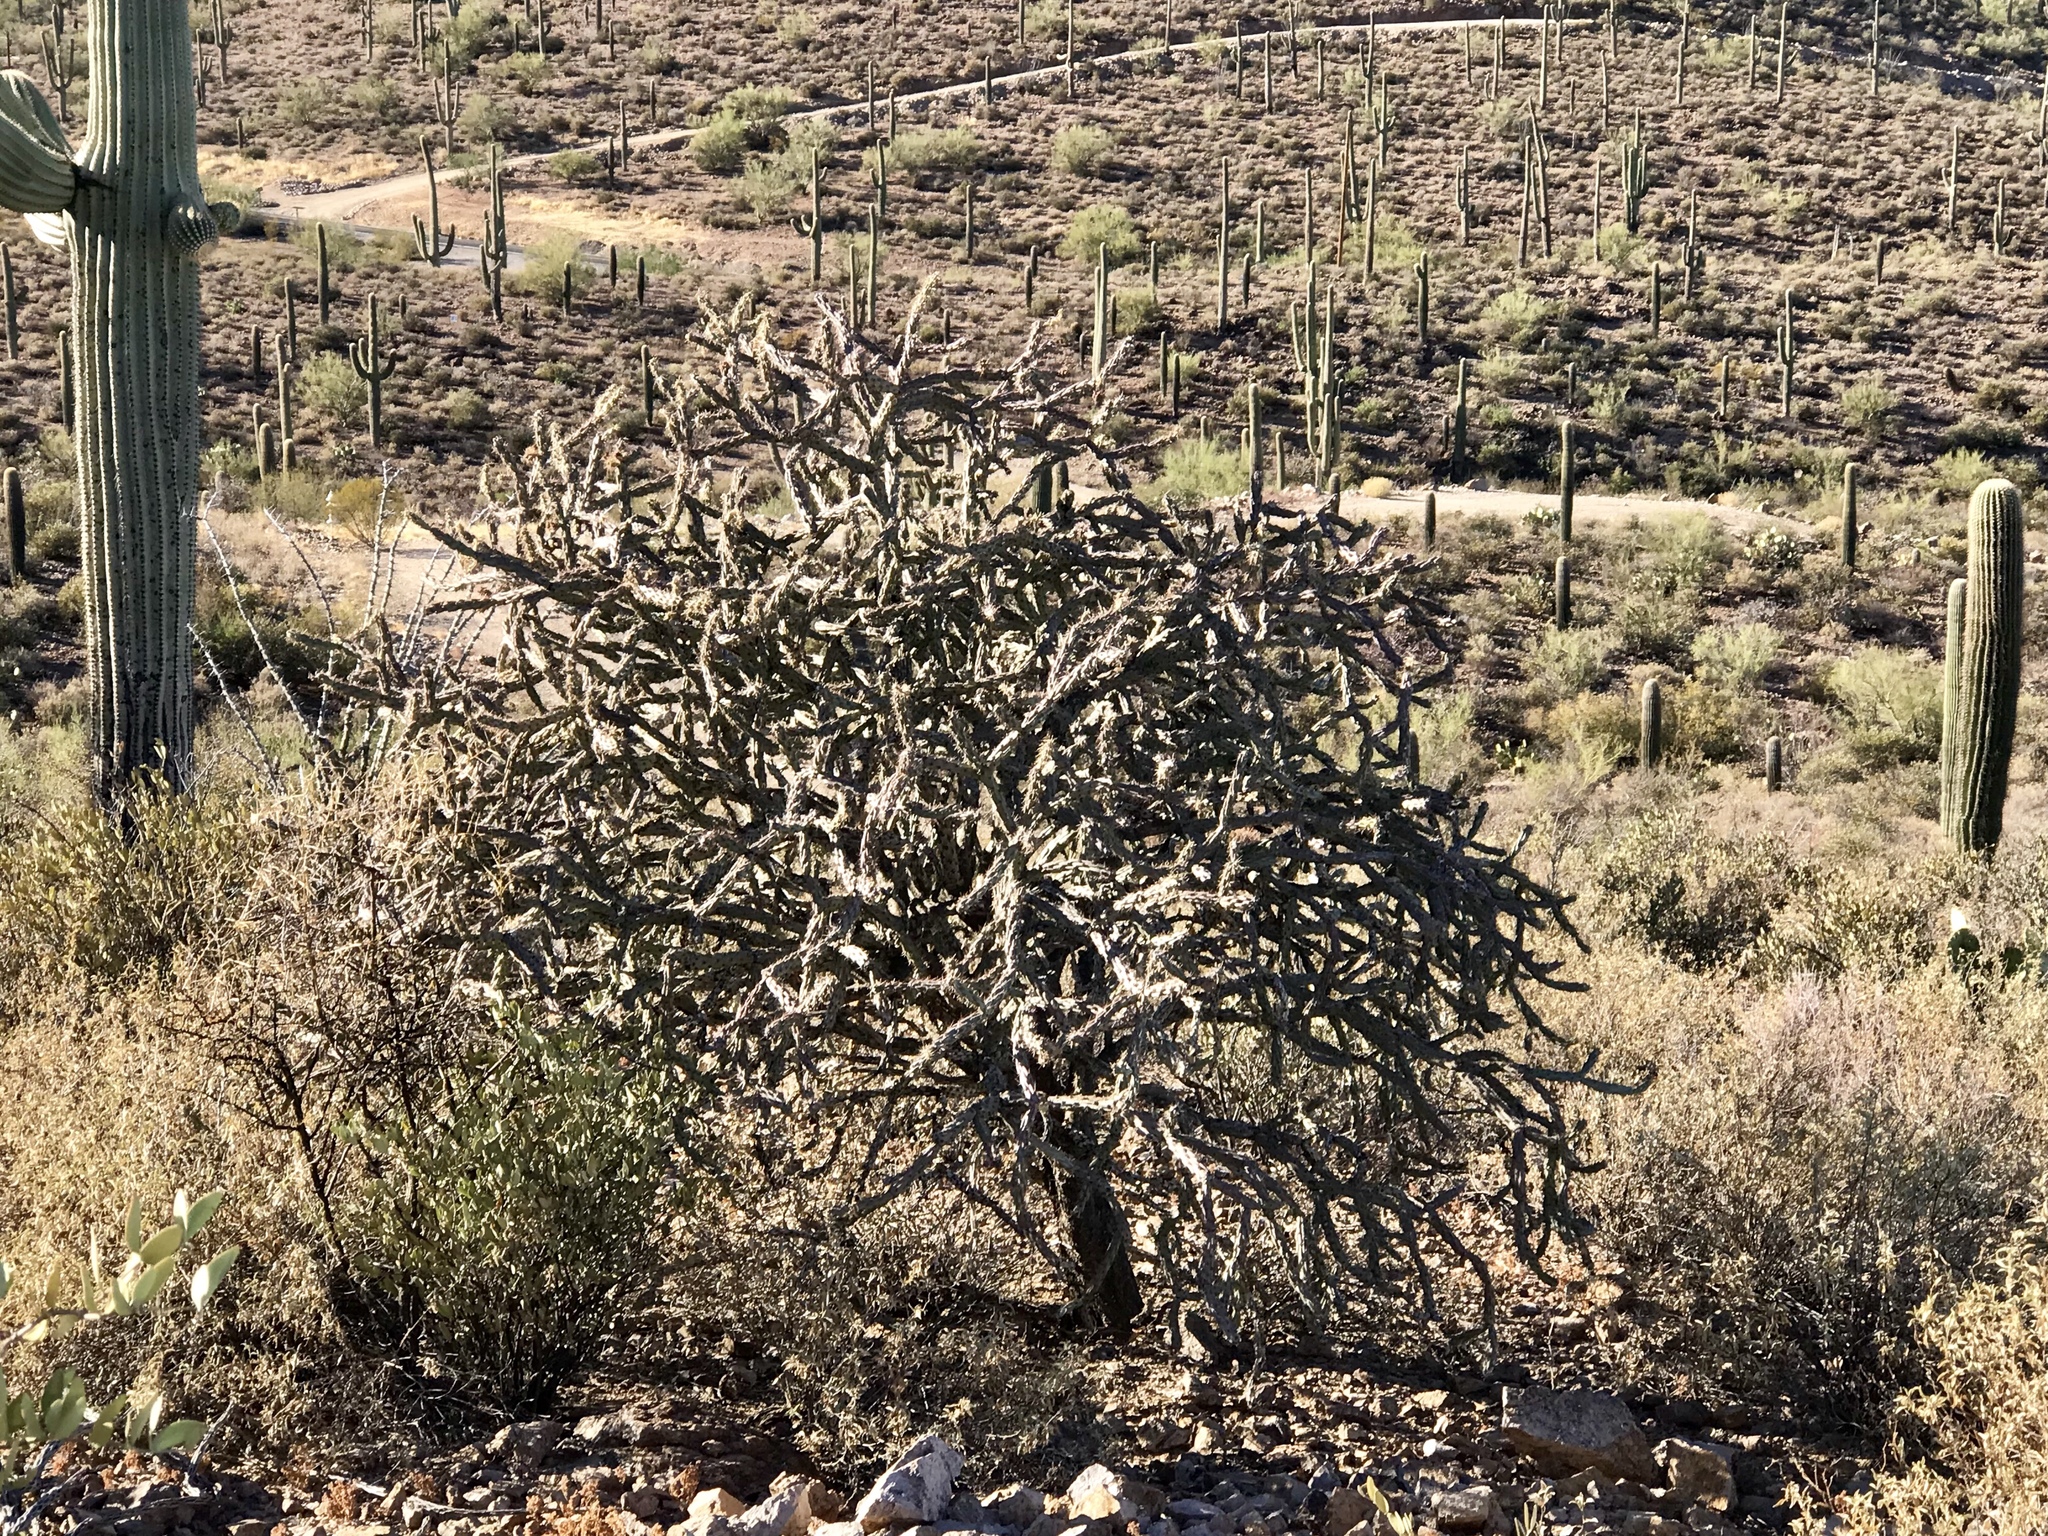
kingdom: Plantae
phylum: Tracheophyta
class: Magnoliopsida
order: Caryophyllales
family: Cactaceae
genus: Cylindropuntia
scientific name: Cylindropuntia thurberi
